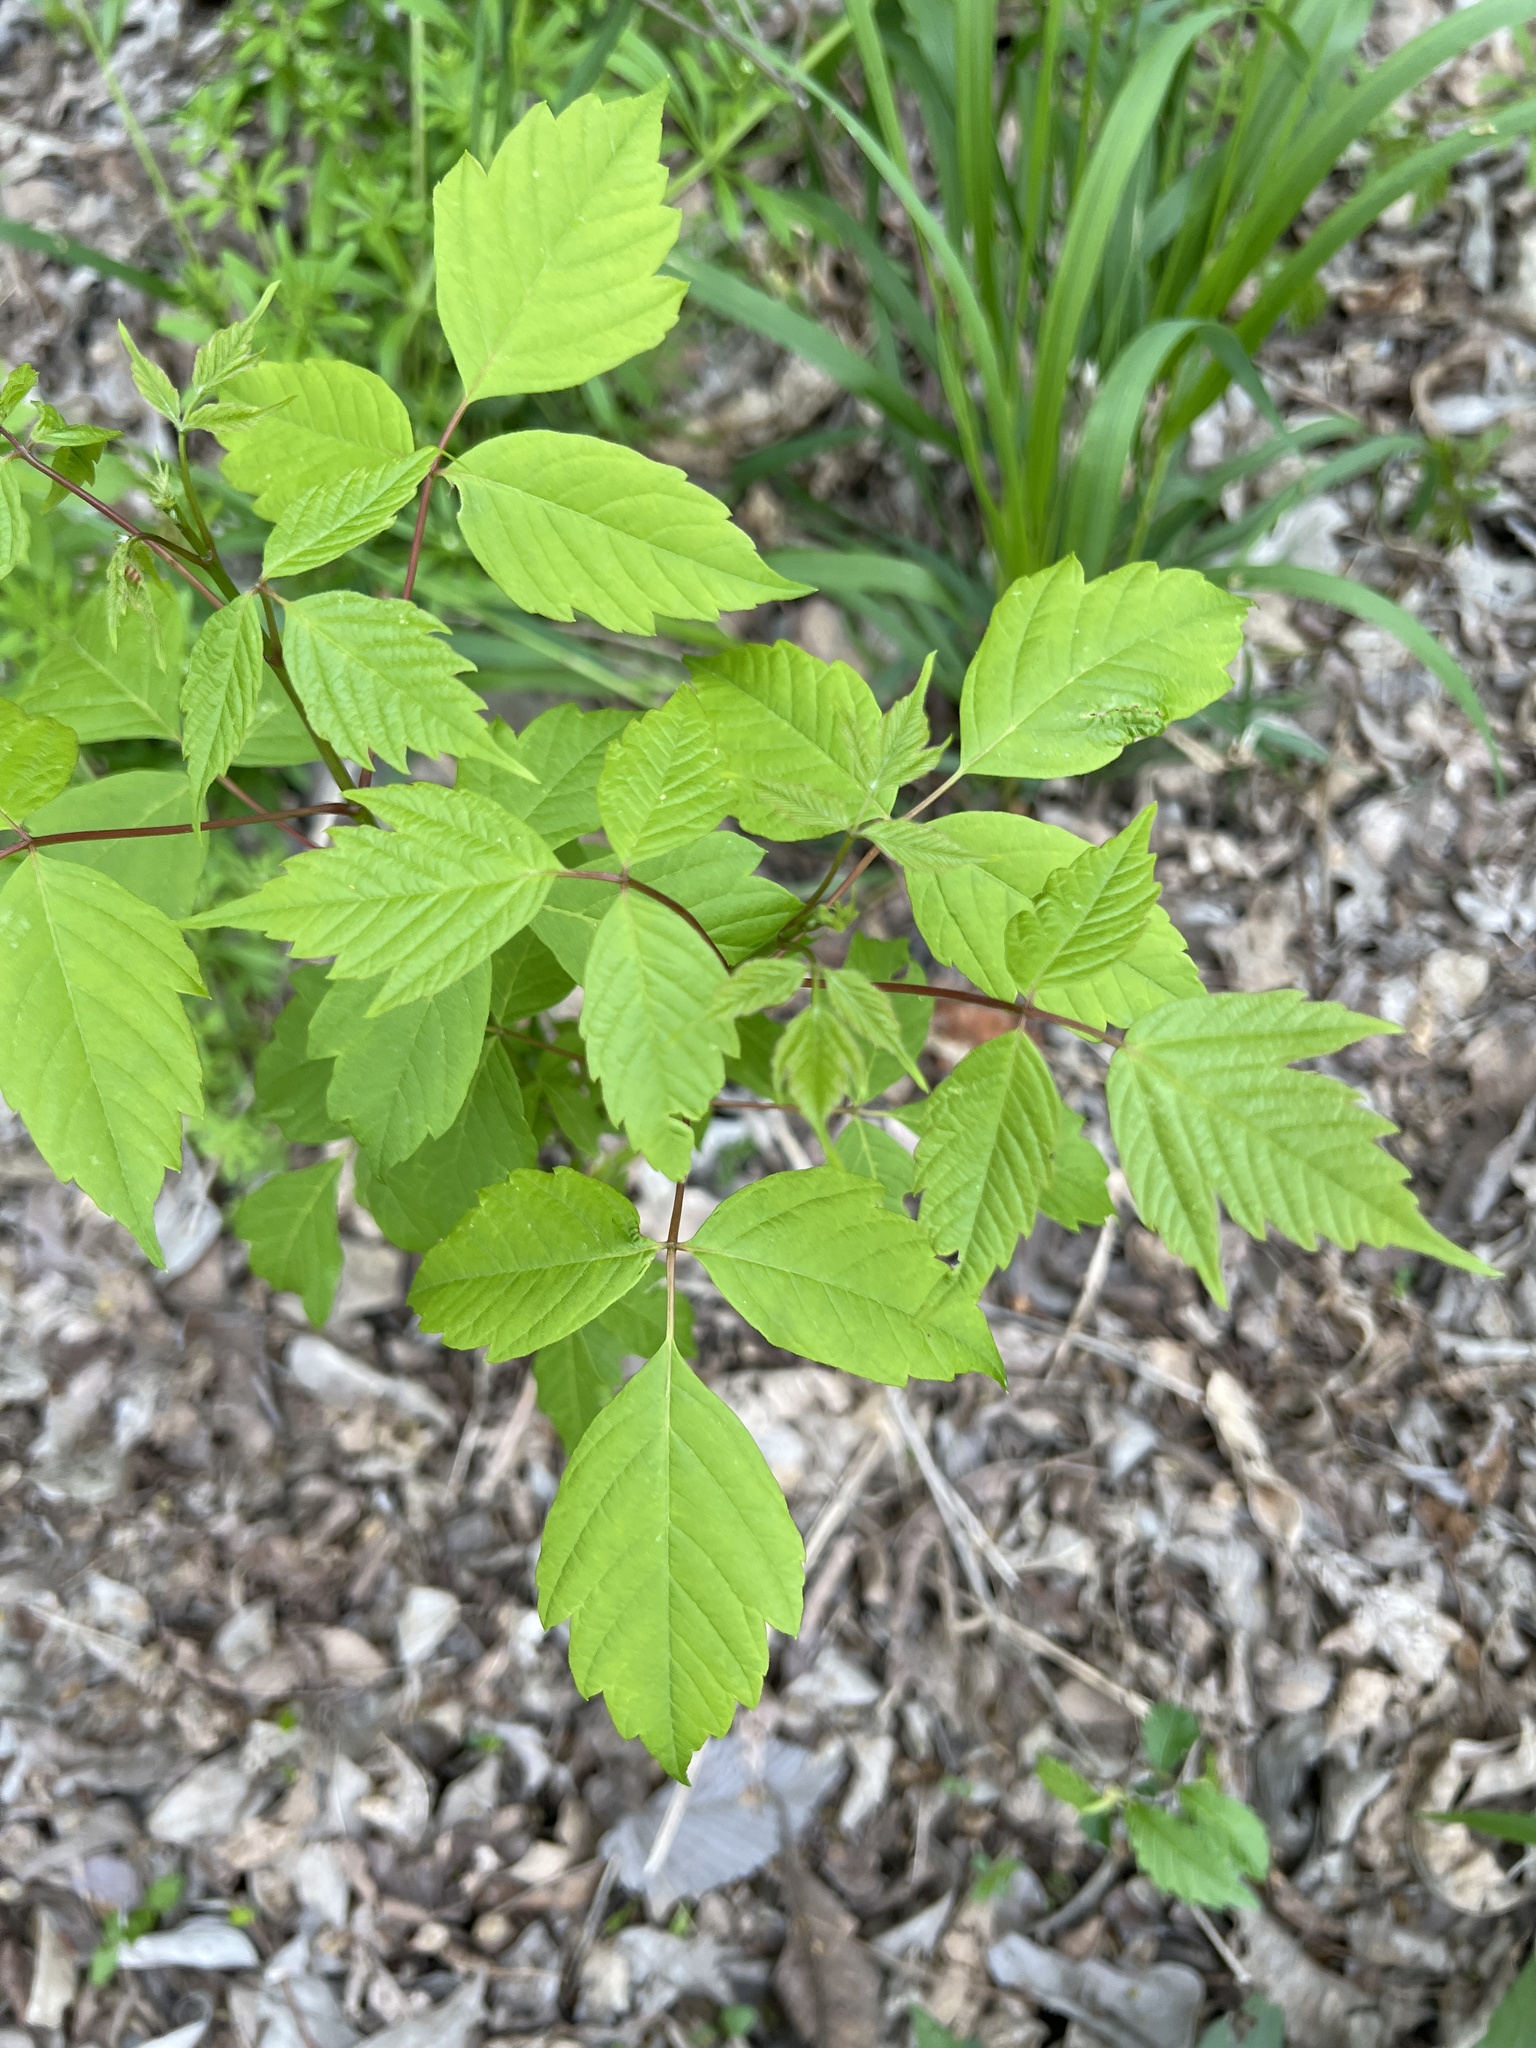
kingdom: Plantae
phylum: Tracheophyta
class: Magnoliopsida
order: Sapindales
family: Sapindaceae
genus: Acer
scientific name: Acer negundo
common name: Ashleaf maple
